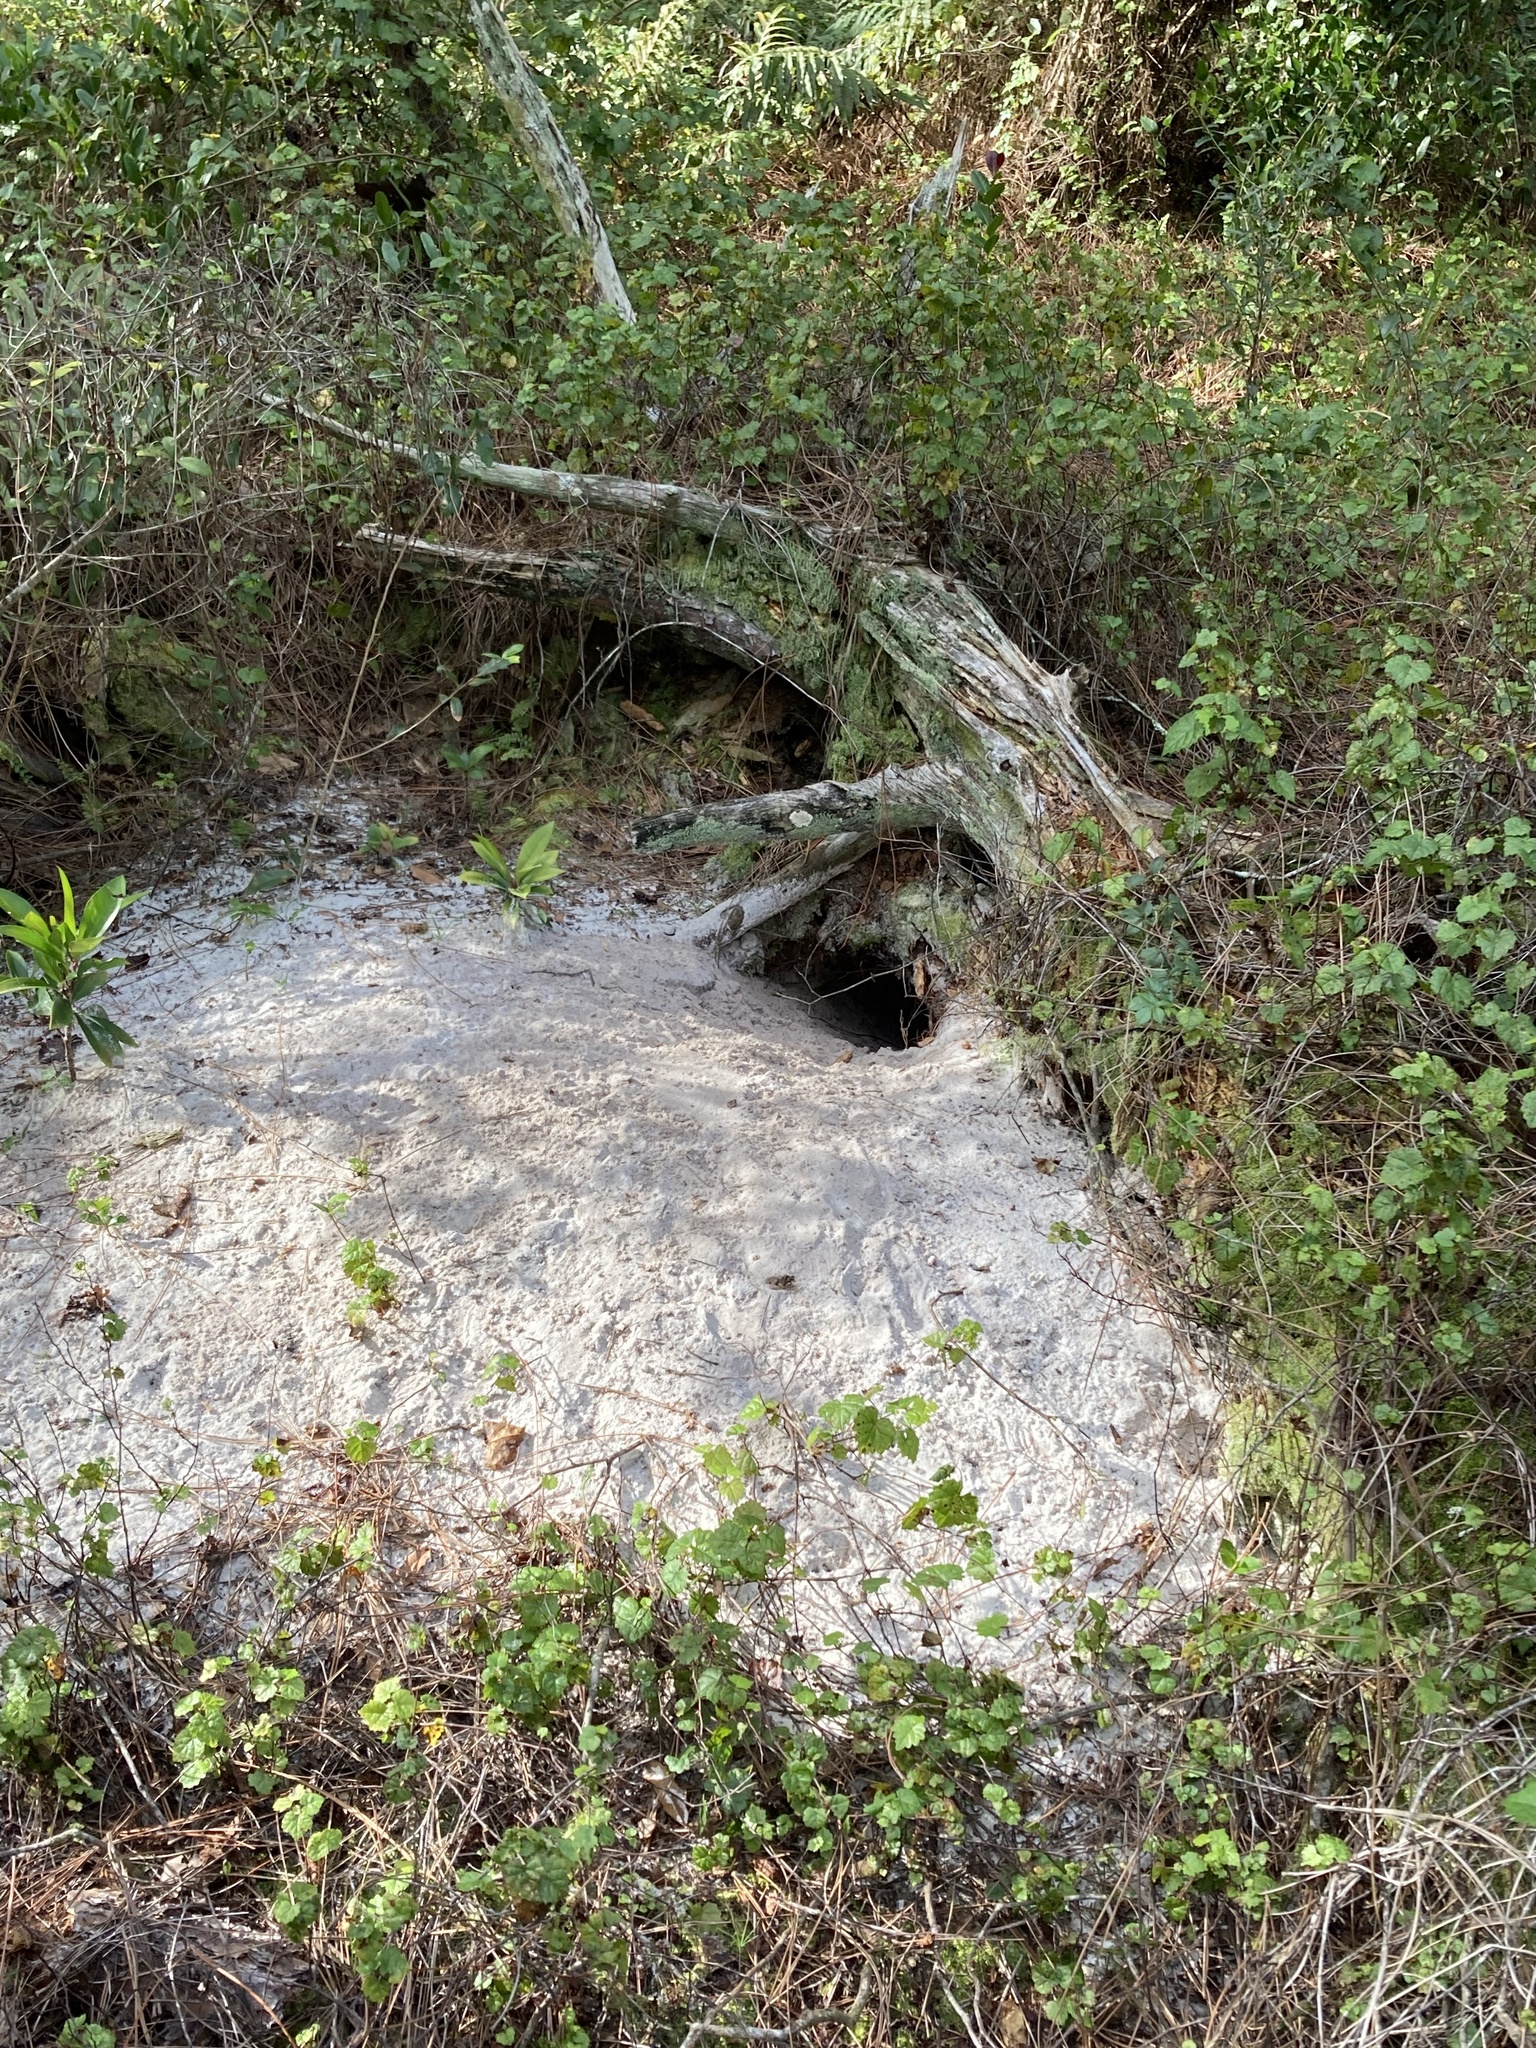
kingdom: Animalia
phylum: Chordata
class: Testudines
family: Testudinidae
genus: Gopherus
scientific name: Gopherus polyphemus
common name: Florida gopher tortoise
